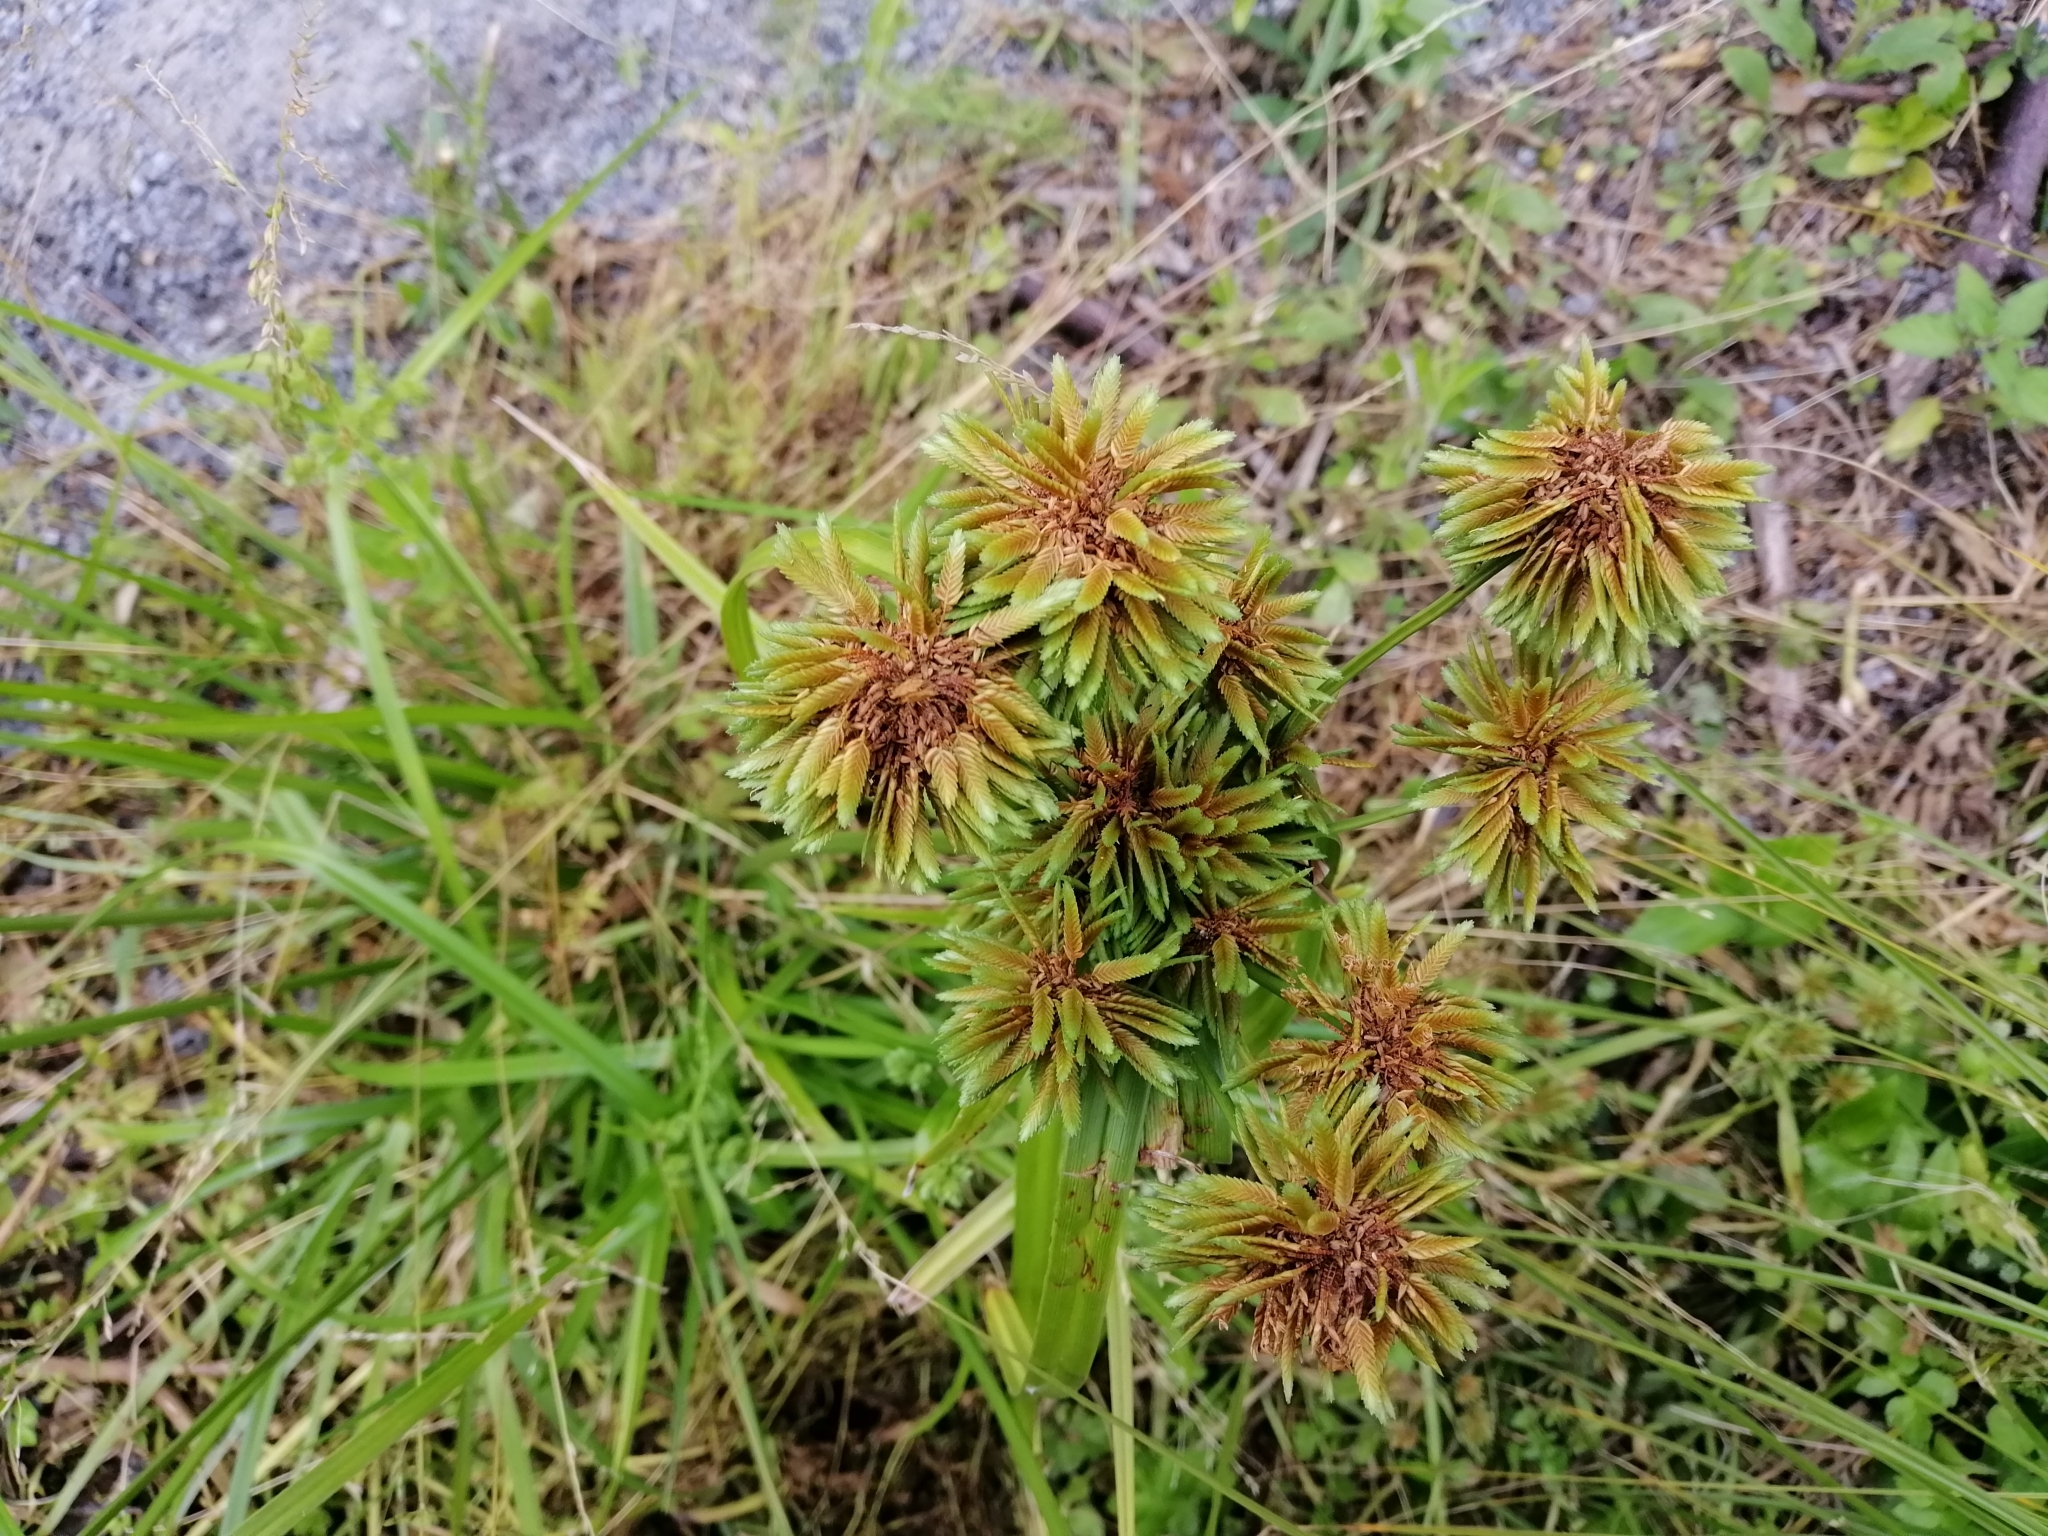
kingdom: Plantae
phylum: Tracheophyta
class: Liliopsida
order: Poales
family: Cyperaceae
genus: Cyperus
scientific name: Cyperus eragrostis
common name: Tall flatsedge
